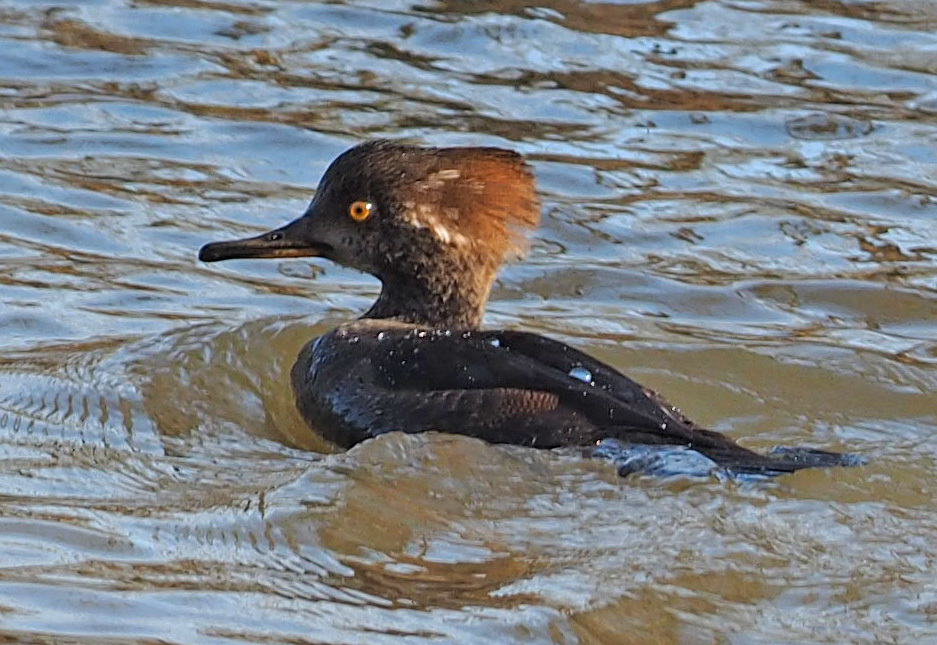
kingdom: Animalia
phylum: Chordata
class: Aves
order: Anseriformes
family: Anatidae
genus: Lophodytes
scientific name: Lophodytes cucullatus
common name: Hooded merganser
